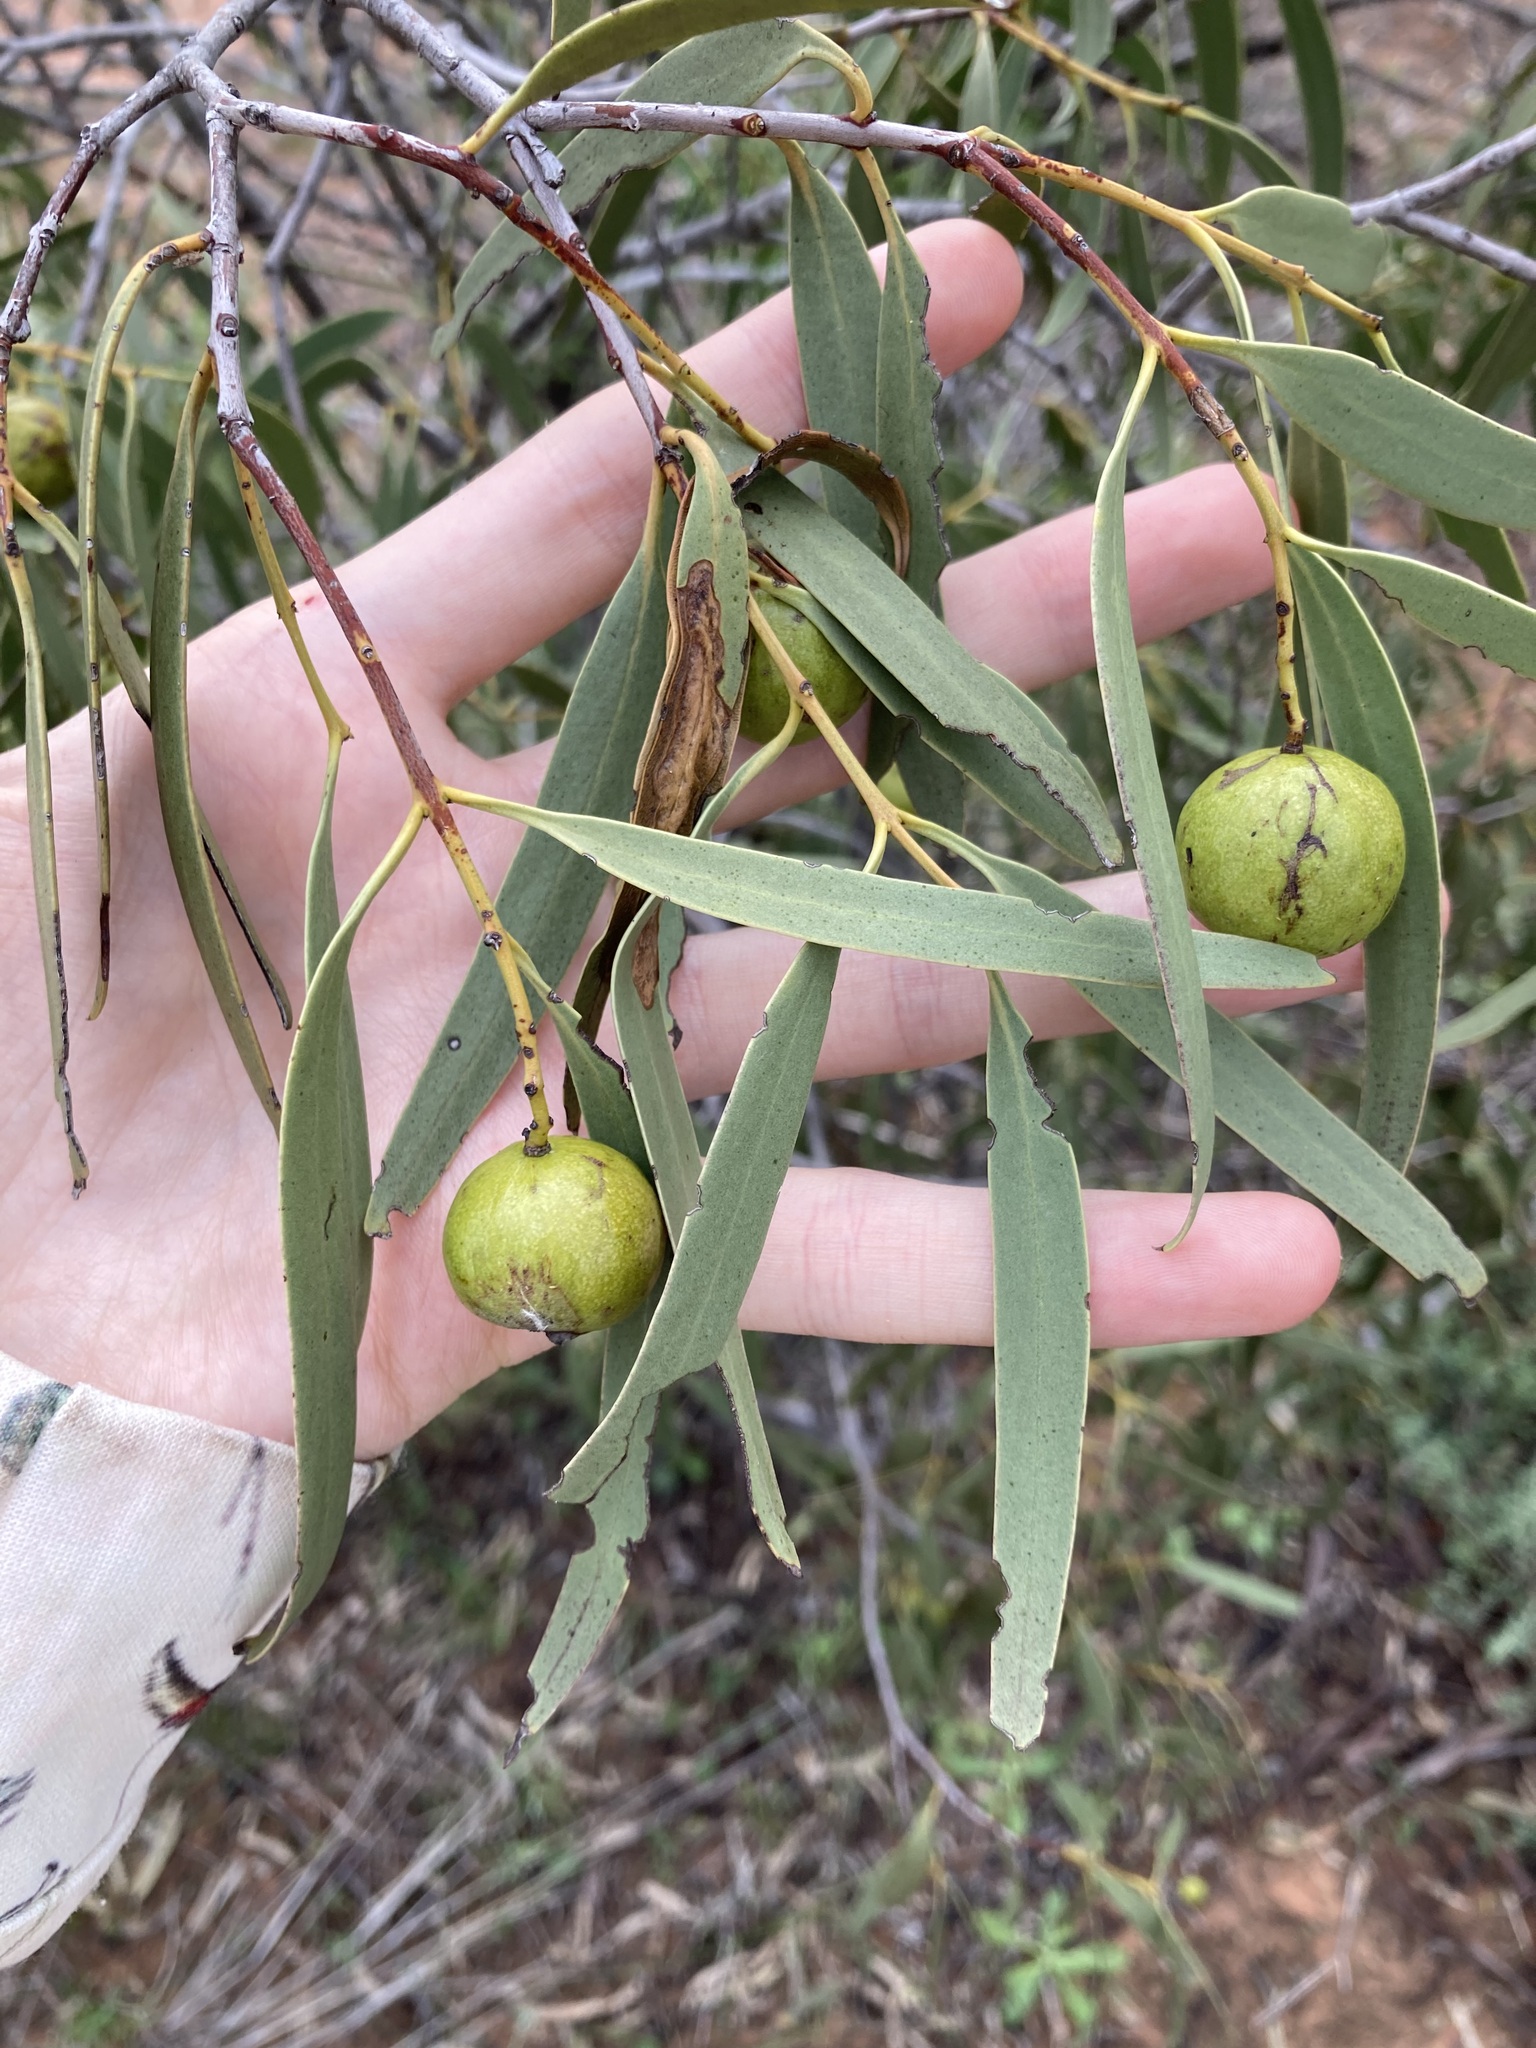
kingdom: Plantae
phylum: Tracheophyta
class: Magnoliopsida
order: Santalales
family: Santalaceae
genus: Santalum
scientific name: Santalum acuminatum
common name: Sweet quandong
